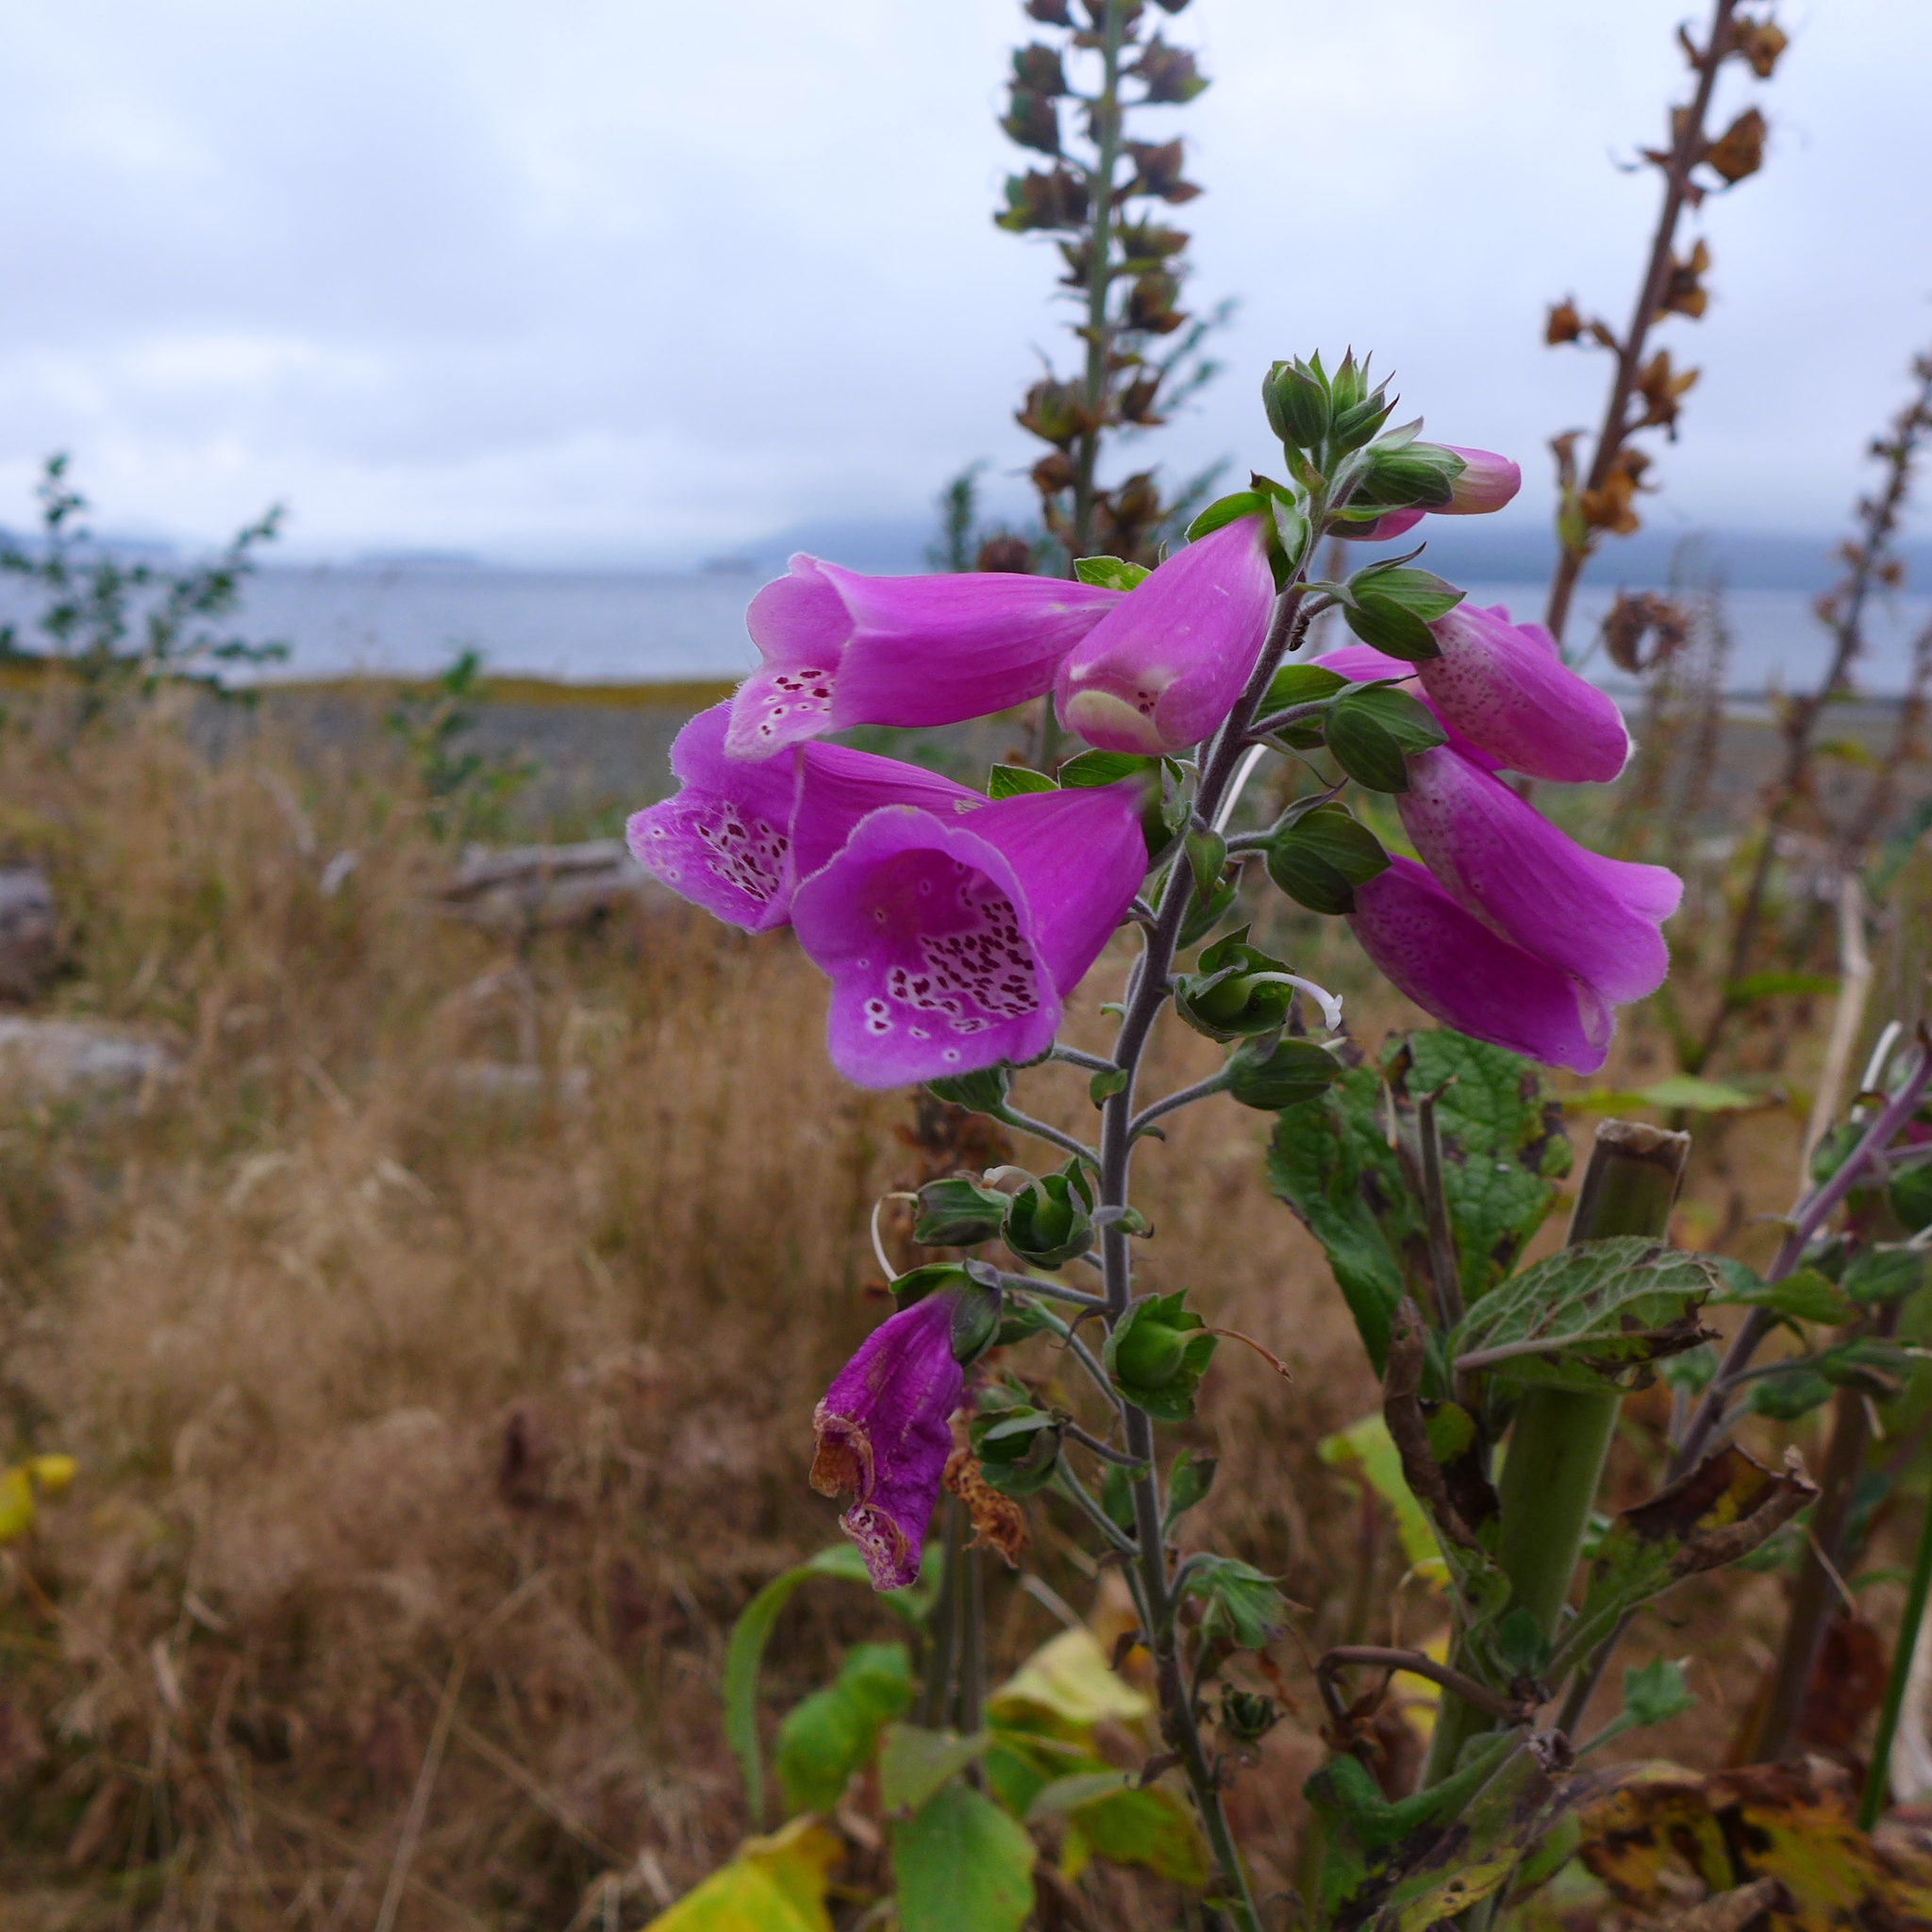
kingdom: Plantae
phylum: Tracheophyta
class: Magnoliopsida
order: Lamiales
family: Plantaginaceae
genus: Digitalis
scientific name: Digitalis purpurea
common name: Foxglove
